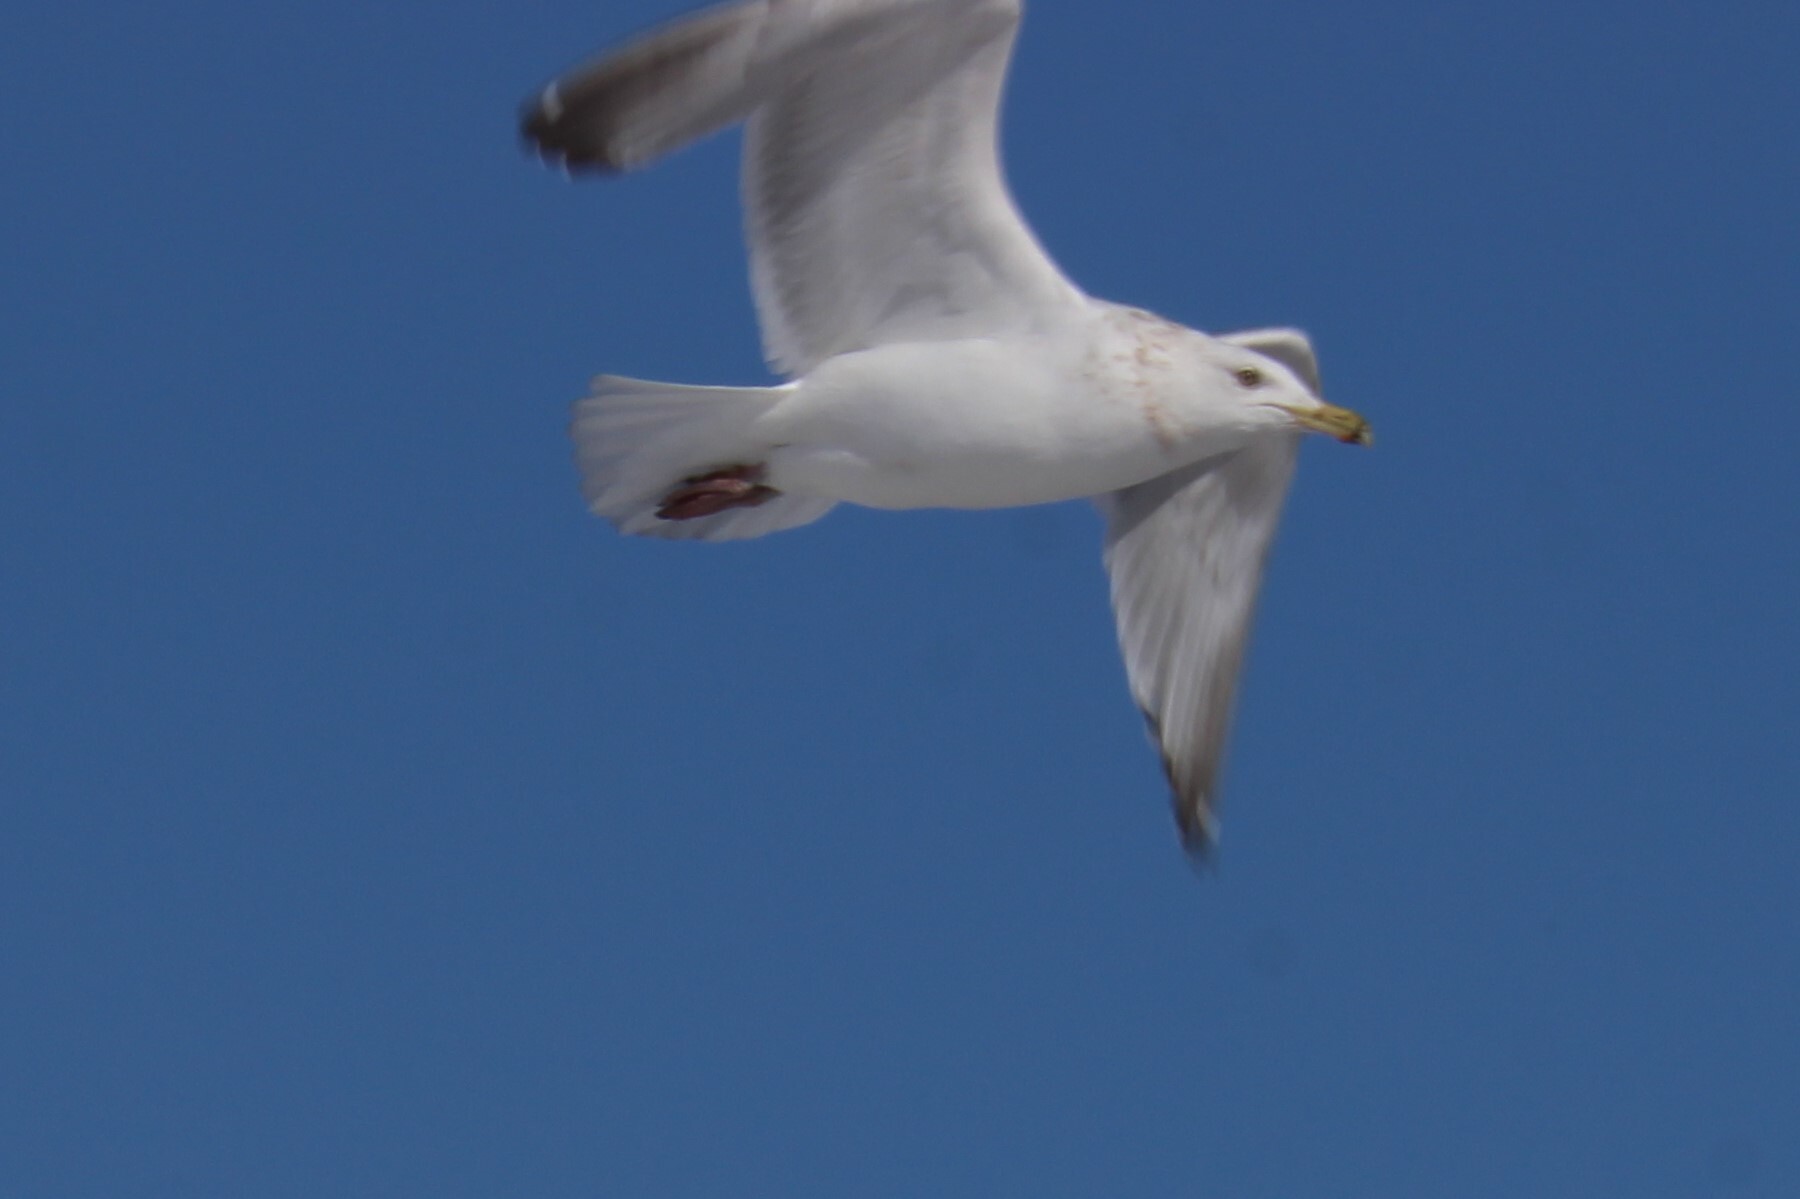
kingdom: Animalia
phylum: Chordata
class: Aves
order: Charadriiformes
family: Laridae
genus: Larus
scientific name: Larus argentatus
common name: Herring gull
